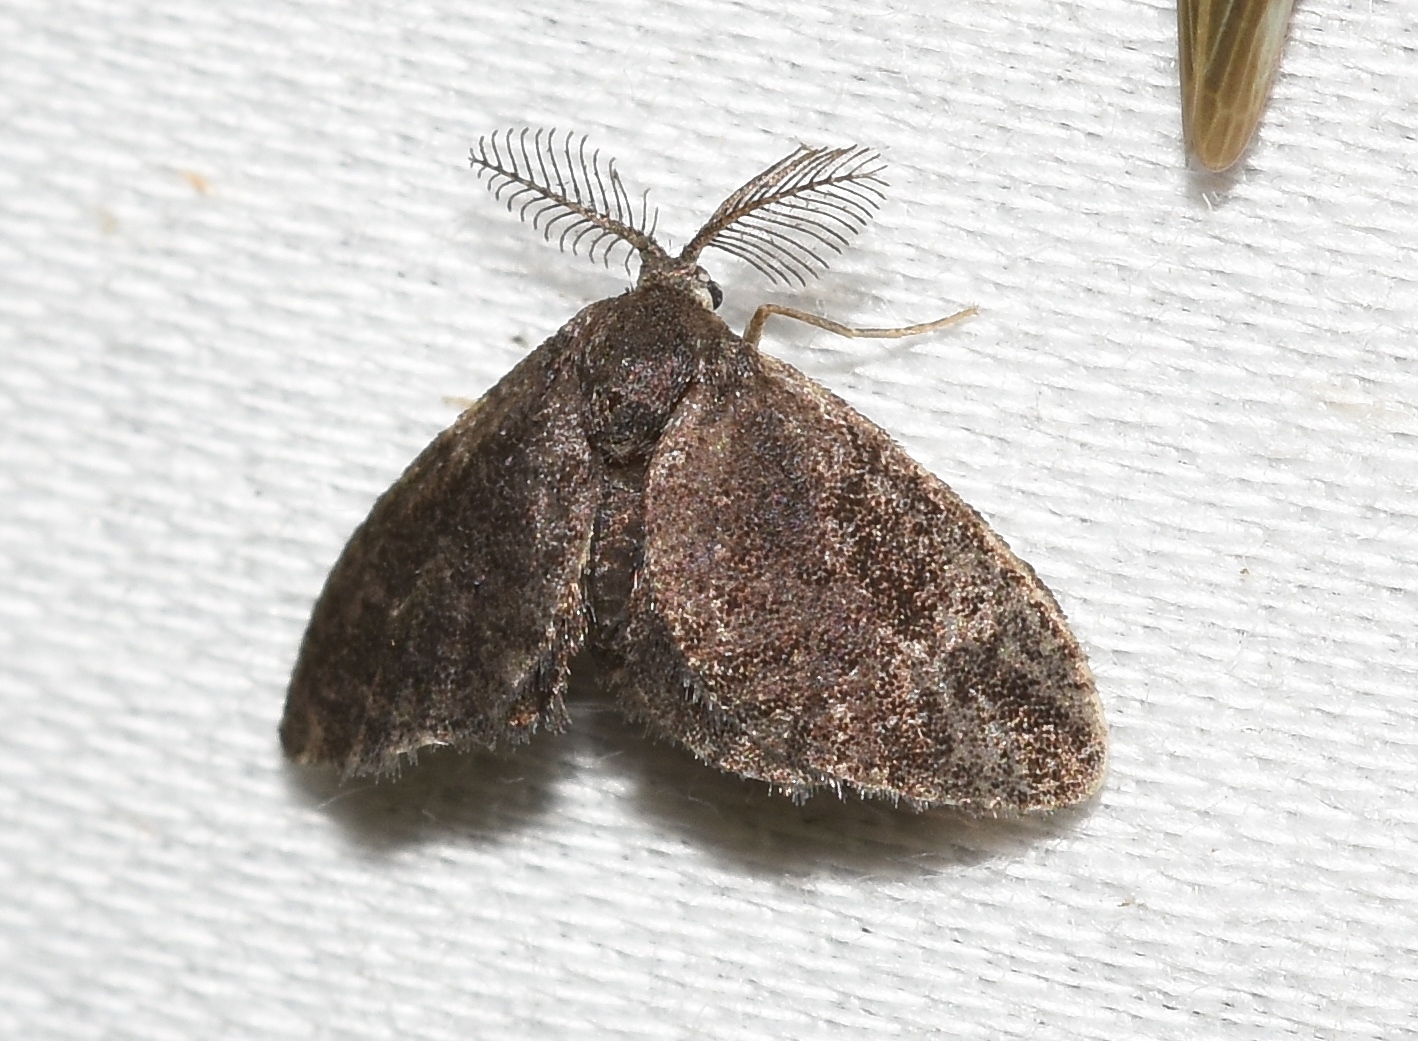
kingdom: Animalia
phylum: Arthropoda
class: Insecta
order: Lepidoptera
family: Epipyropidae
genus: Fulgoraecia
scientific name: Fulgoraecia exigua
